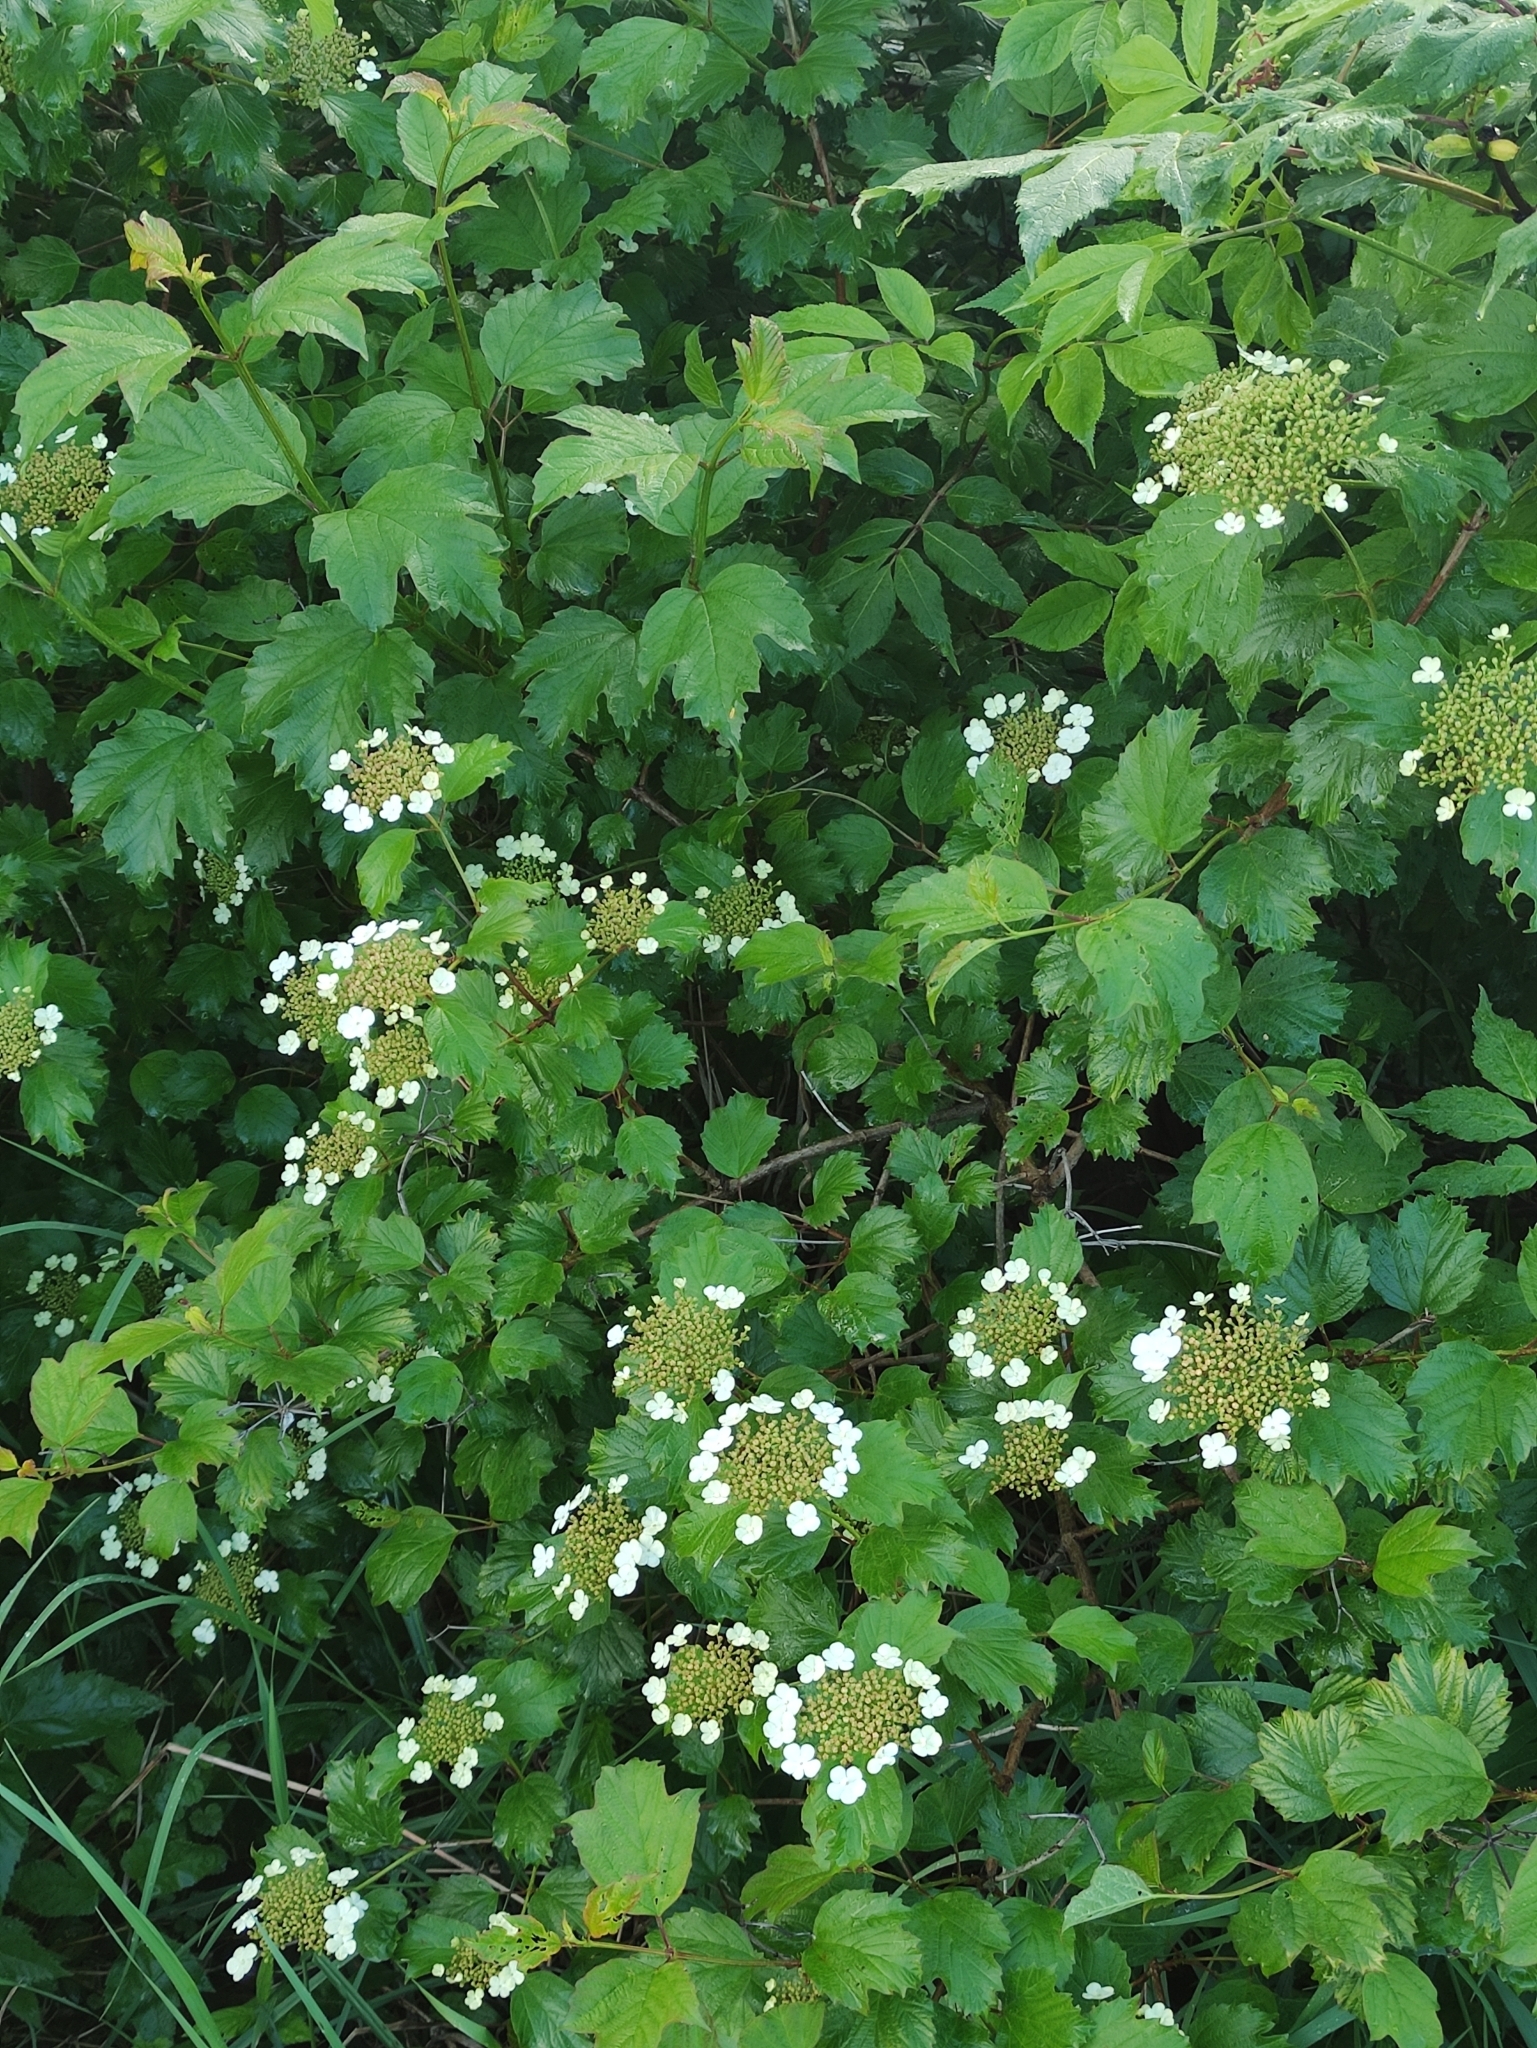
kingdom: Plantae
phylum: Tracheophyta
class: Magnoliopsida
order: Dipsacales
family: Viburnaceae
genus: Viburnum
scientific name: Viburnum opulus
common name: Guelder-rose
